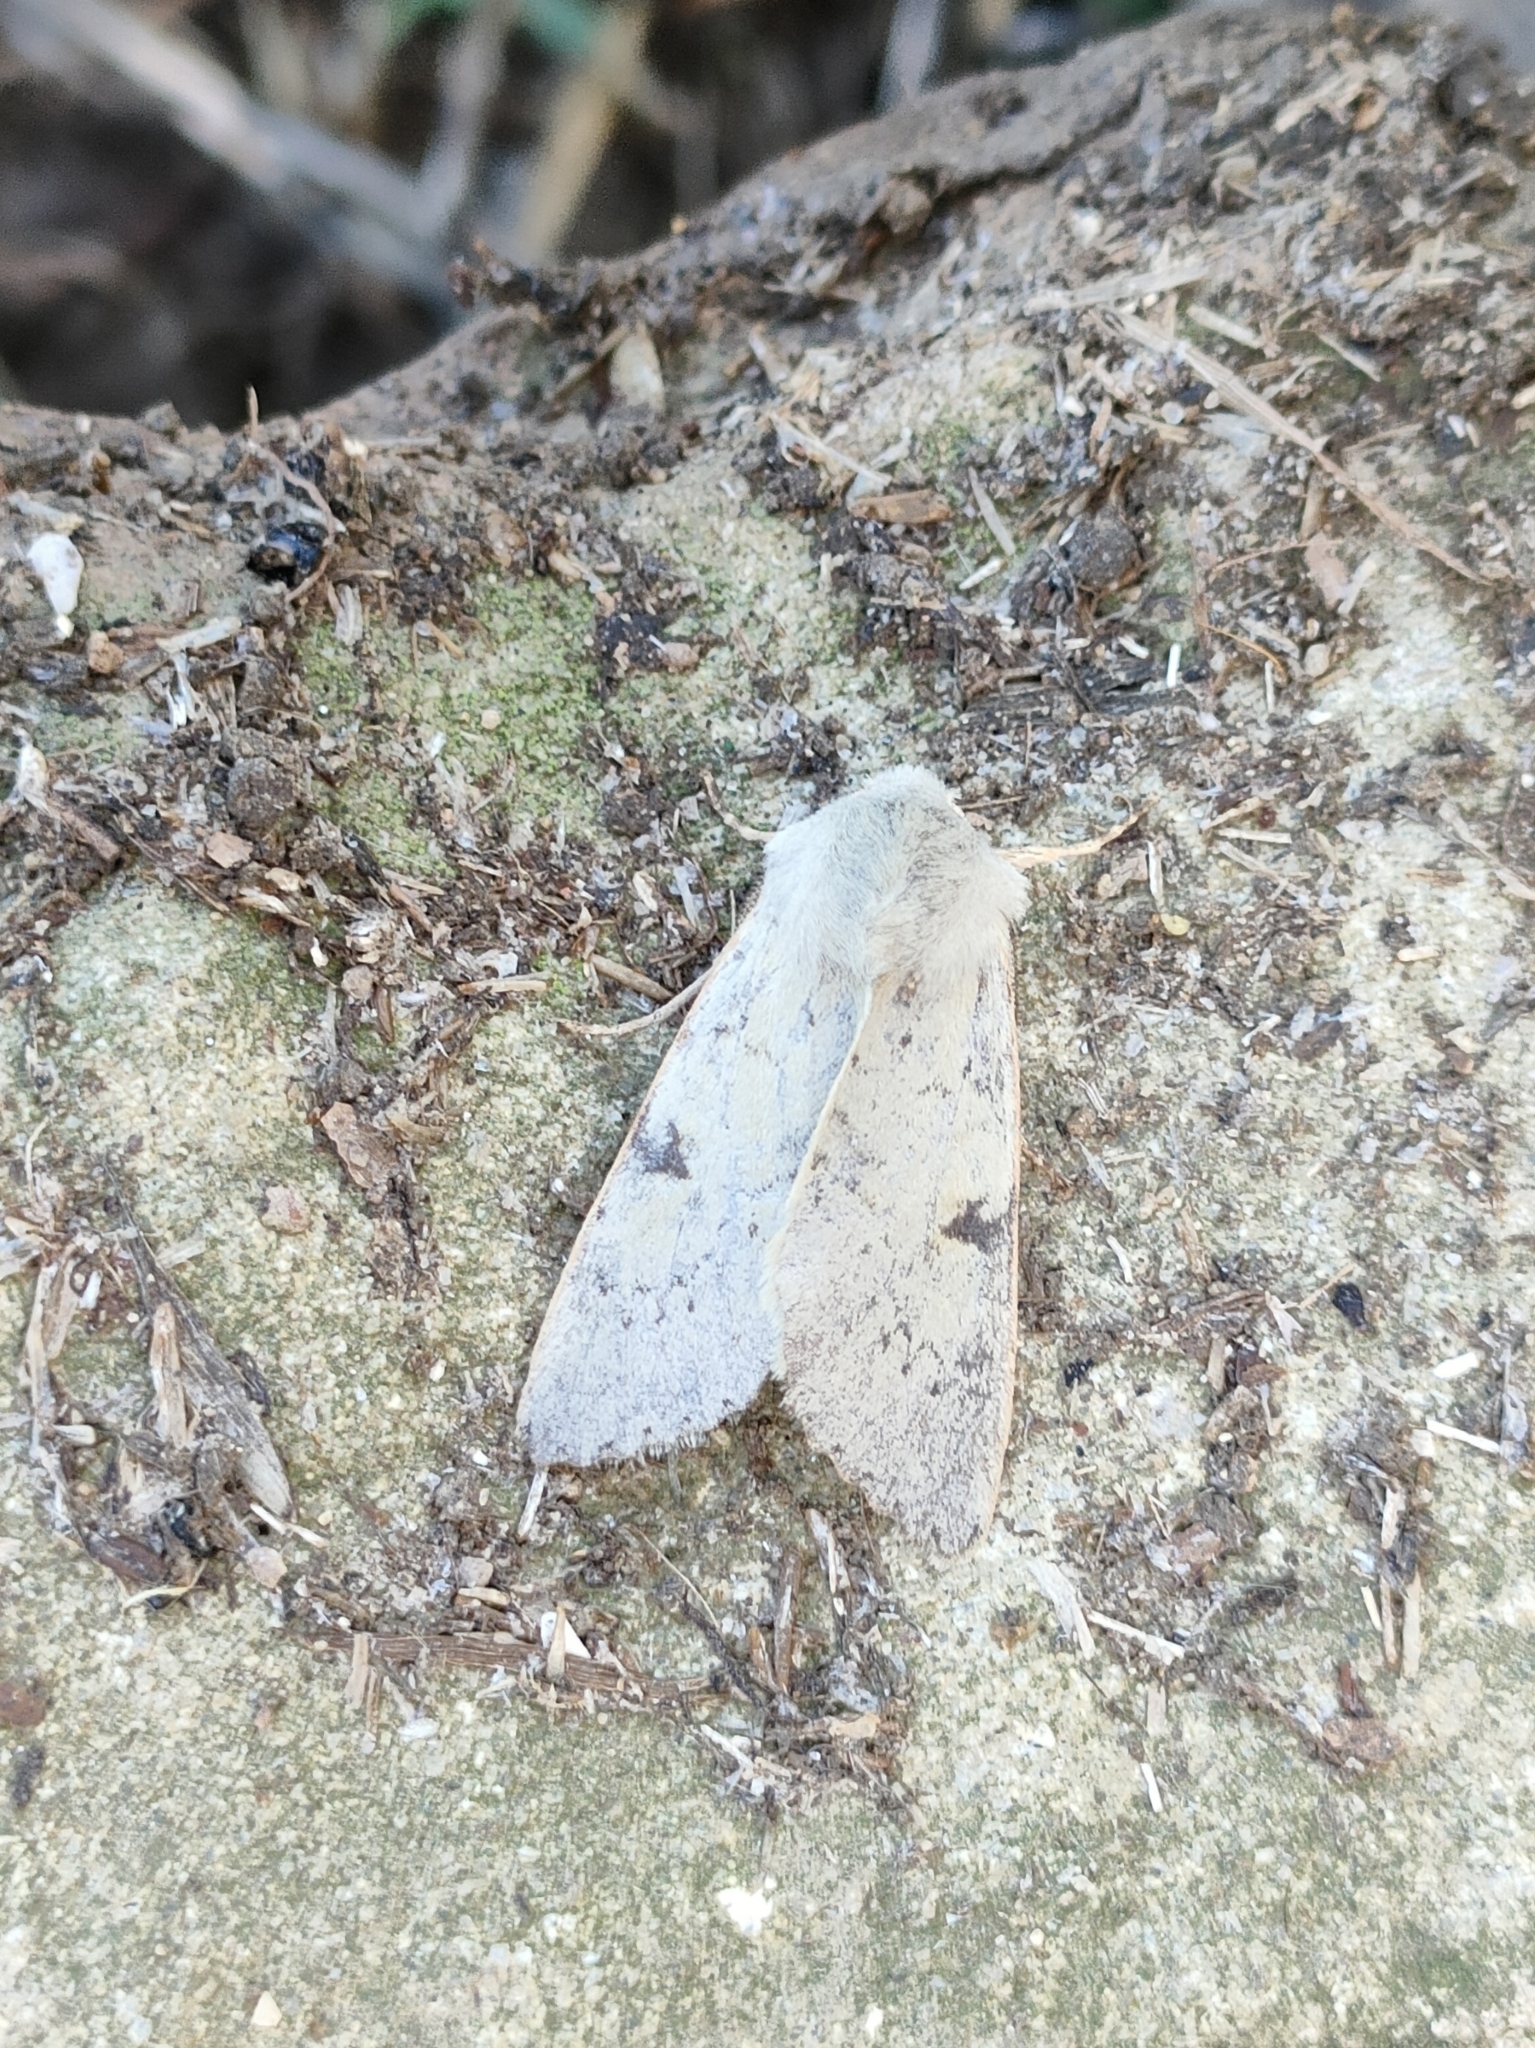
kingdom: Animalia
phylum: Arthropoda
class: Insecta
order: Lepidoptera
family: Noctuidae
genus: Ammopolia
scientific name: Ammopolia witzenmanni
